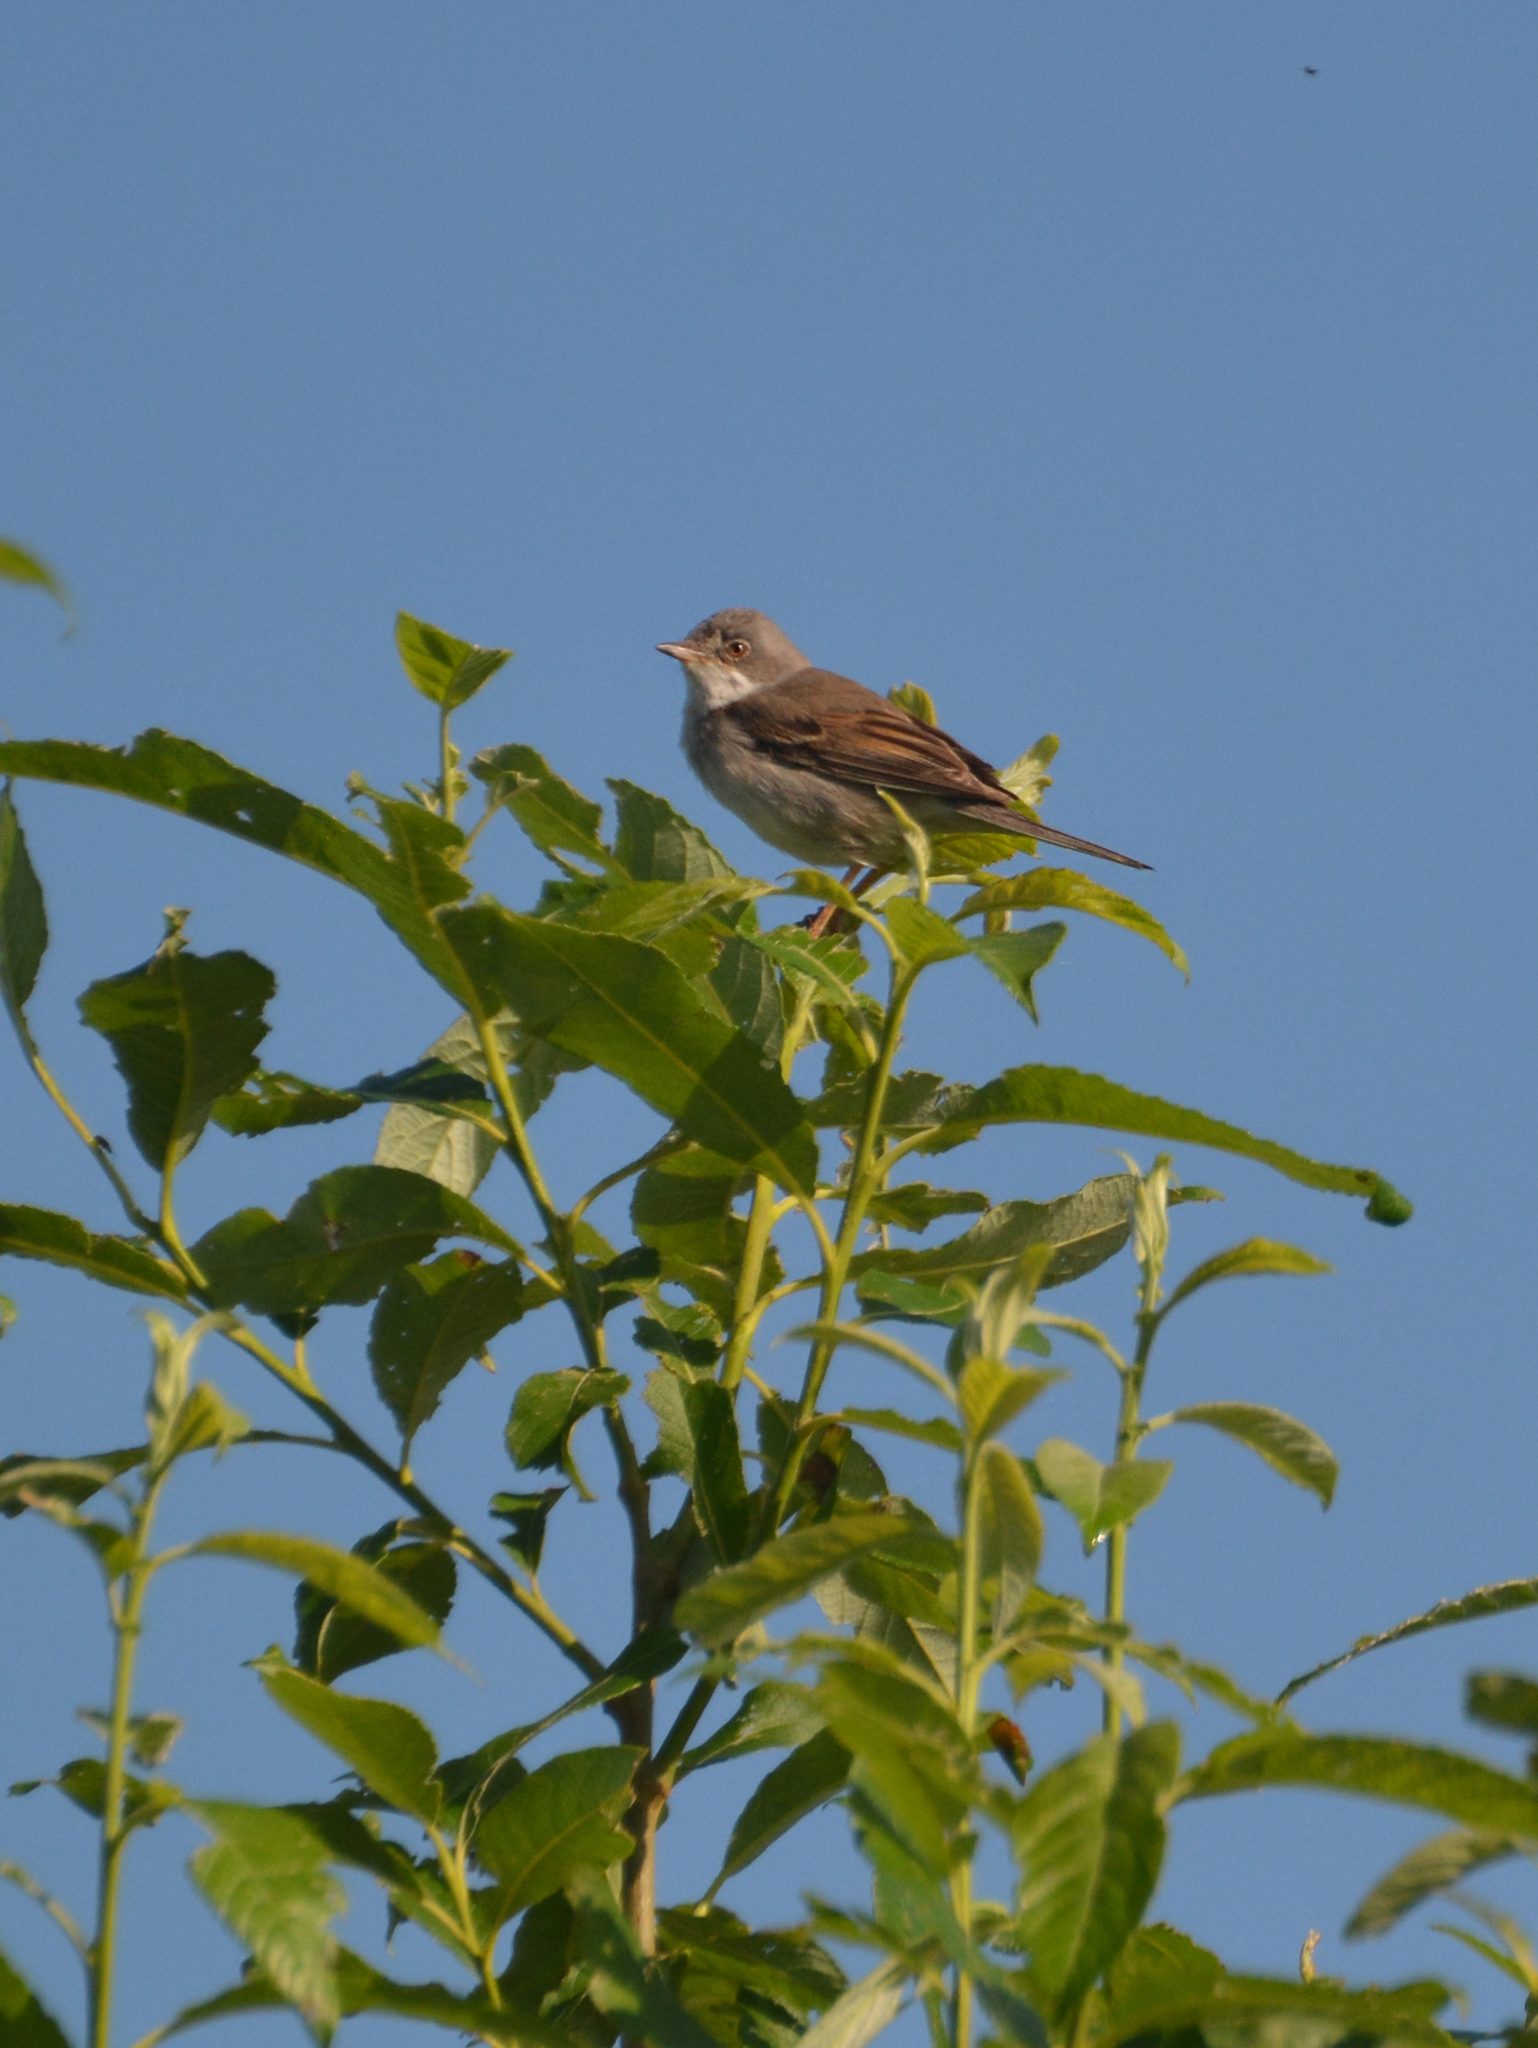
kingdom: Animalia
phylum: Chordata
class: Aves
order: Passeriformes
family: Sylviidae
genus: Sylvia
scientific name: Sylvia communis
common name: Common whitethroat
